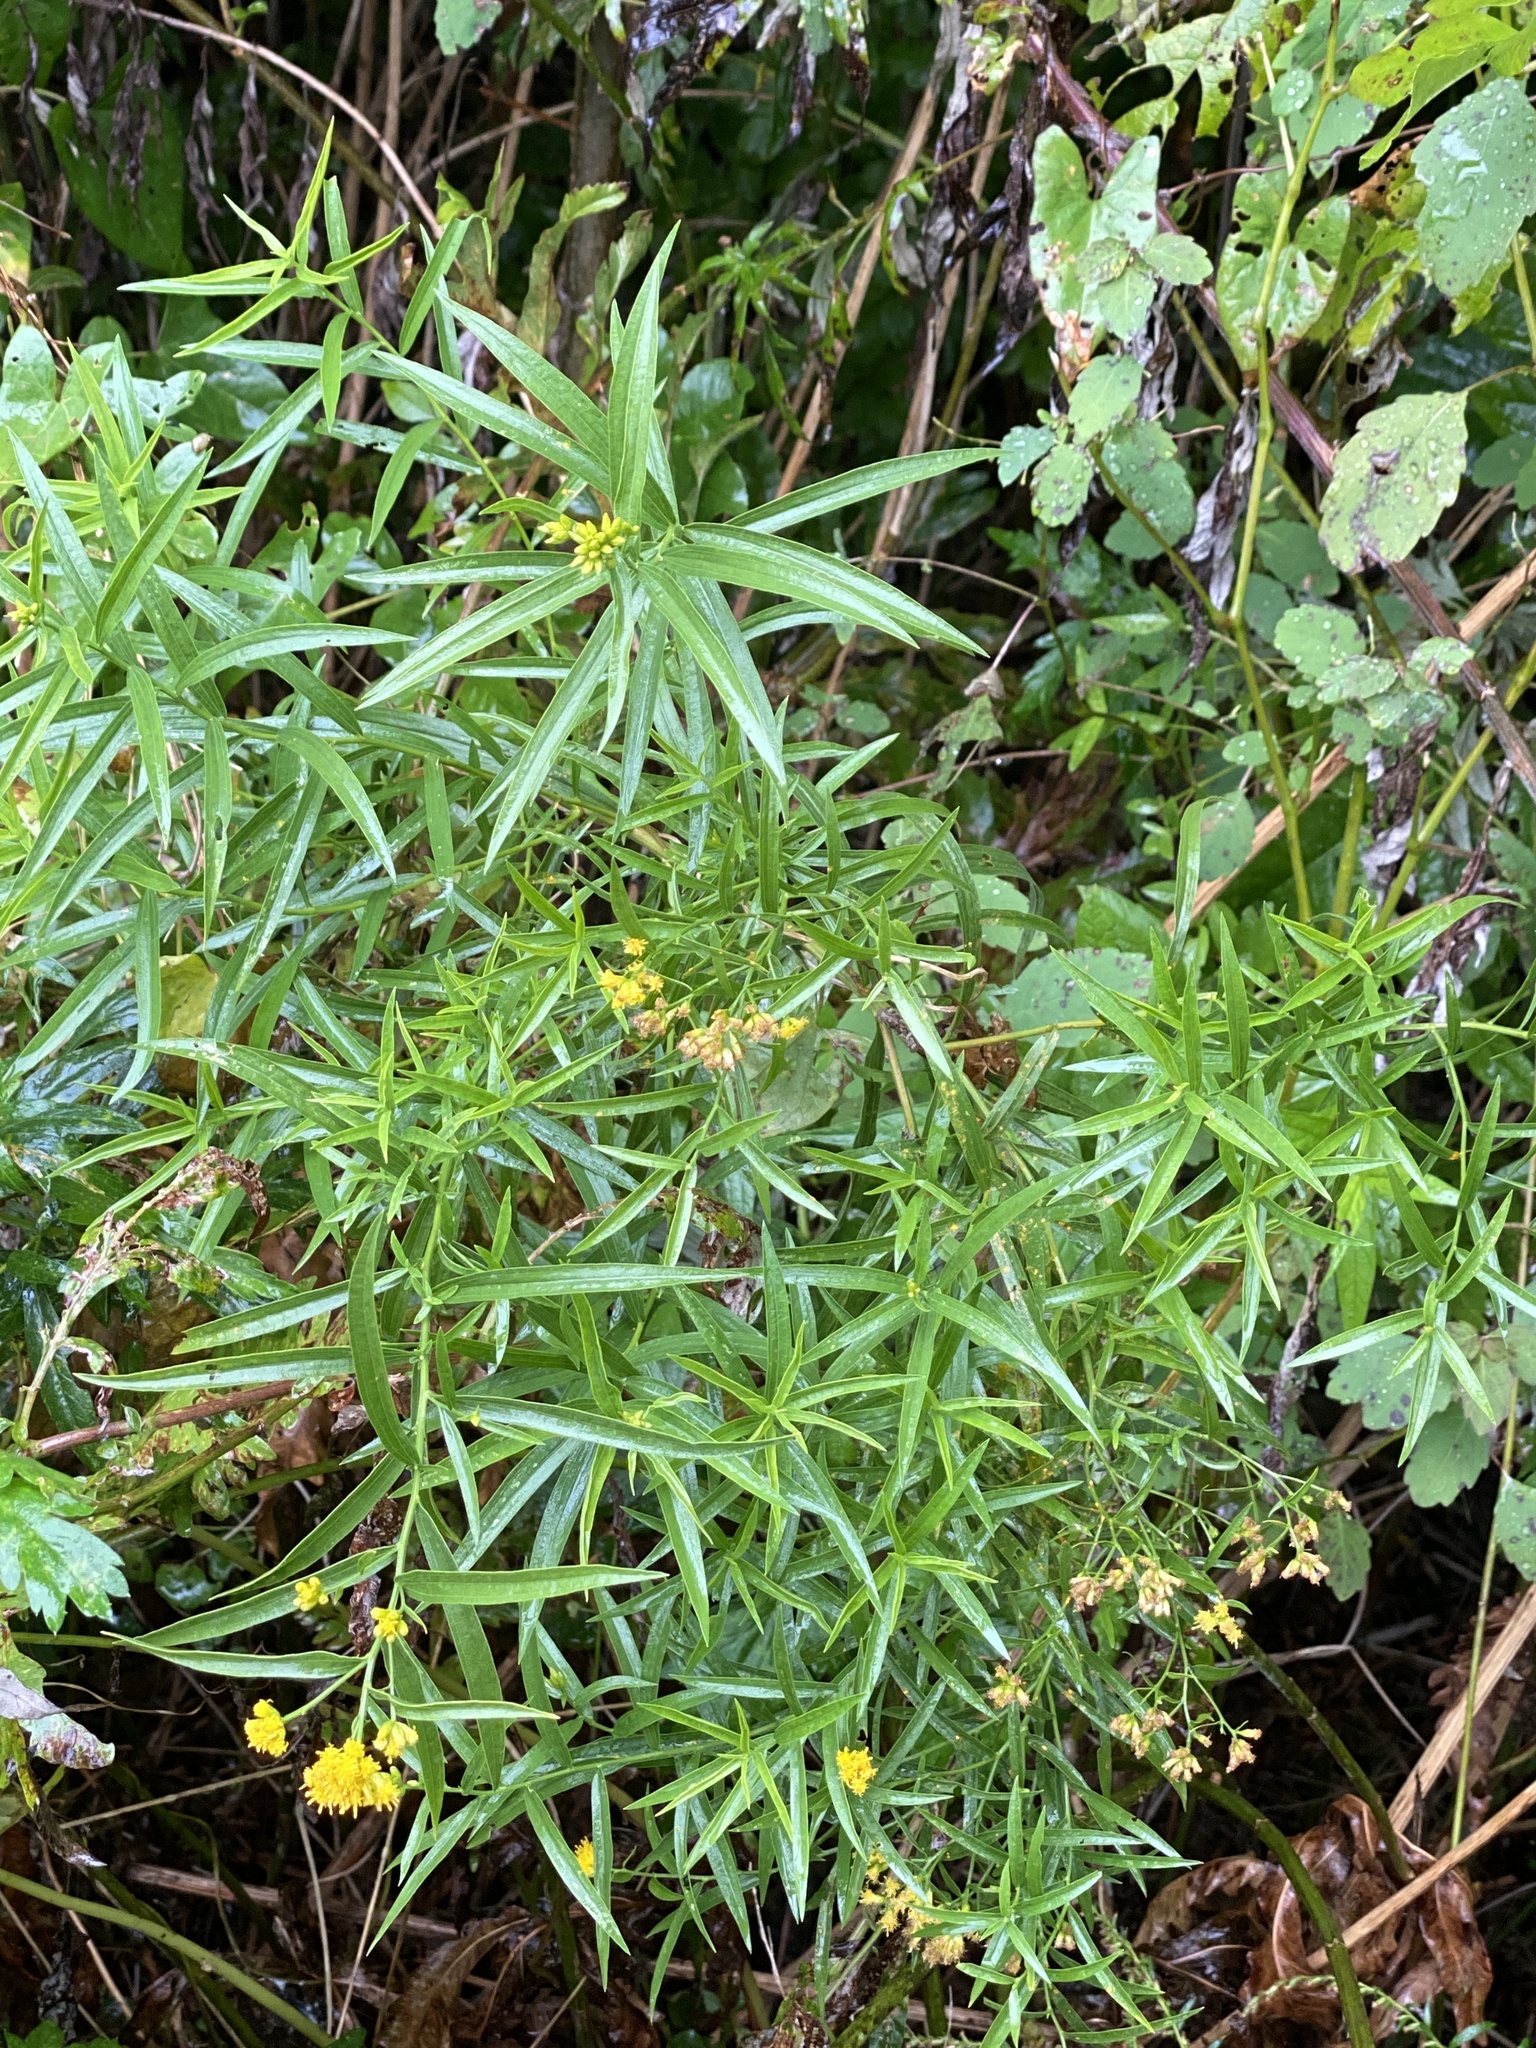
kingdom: Plantae
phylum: Tracheophyta
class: Magnoliopsida
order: Asterales
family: Asteraceae
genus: Euthamia
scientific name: Euthamia graminifolia
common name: Common goldentop
